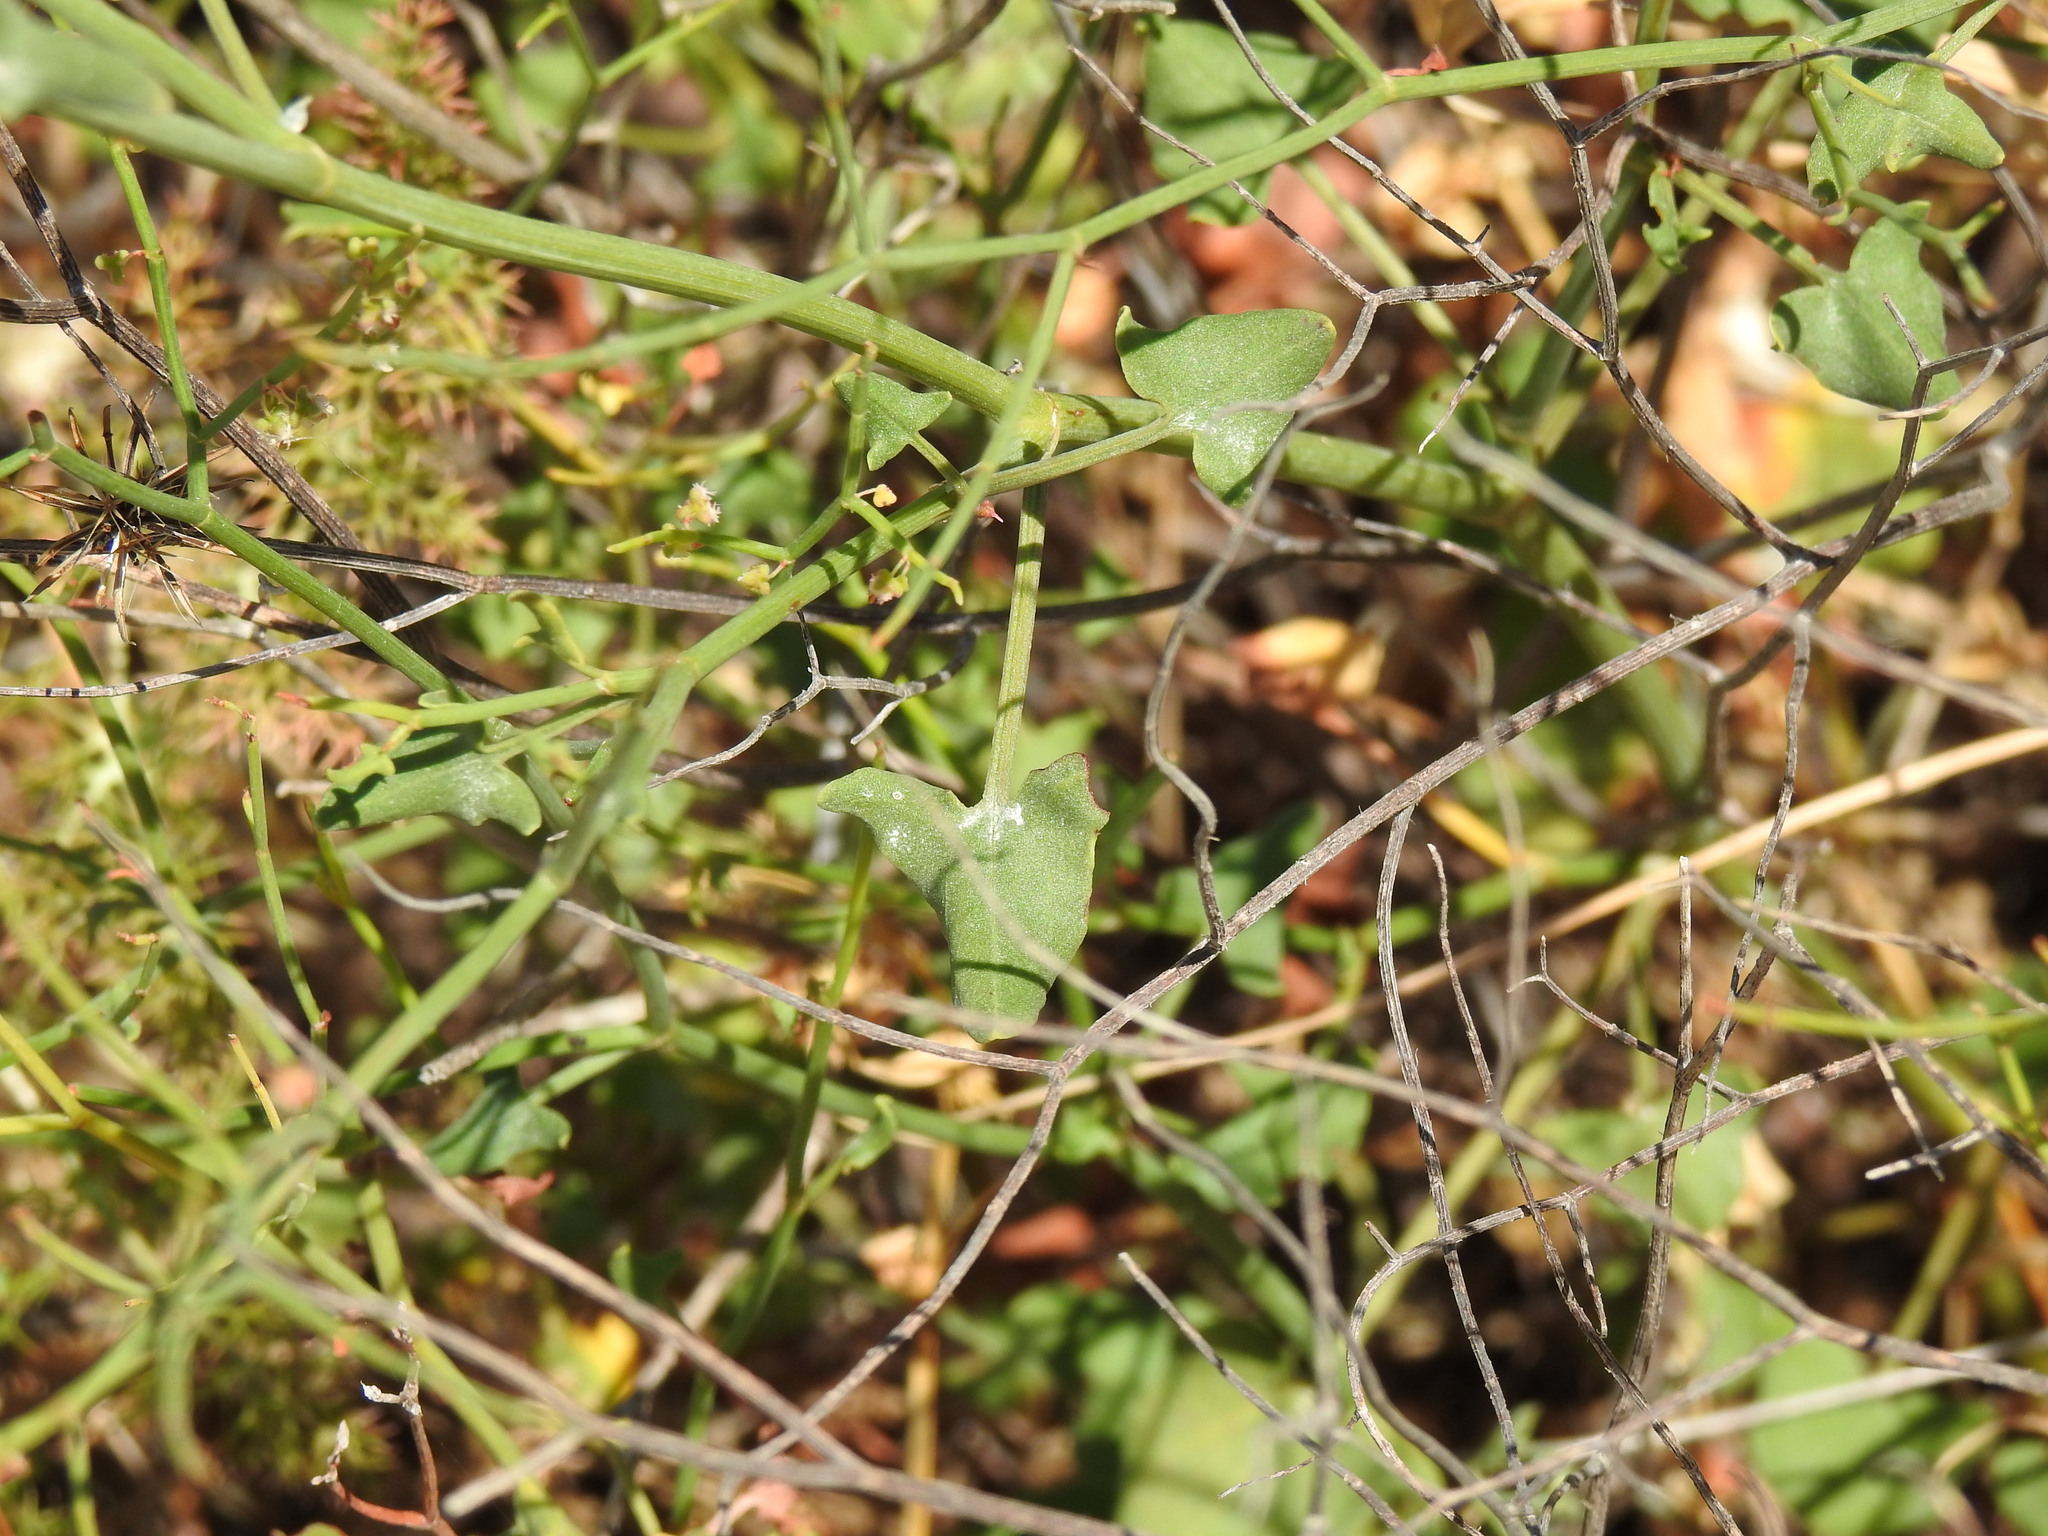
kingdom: Plantae
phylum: Tracheophyta
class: Magnoliopsida
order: Caryophyllales
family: Polygonaceae
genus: Rumex
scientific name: Rumex induratus
